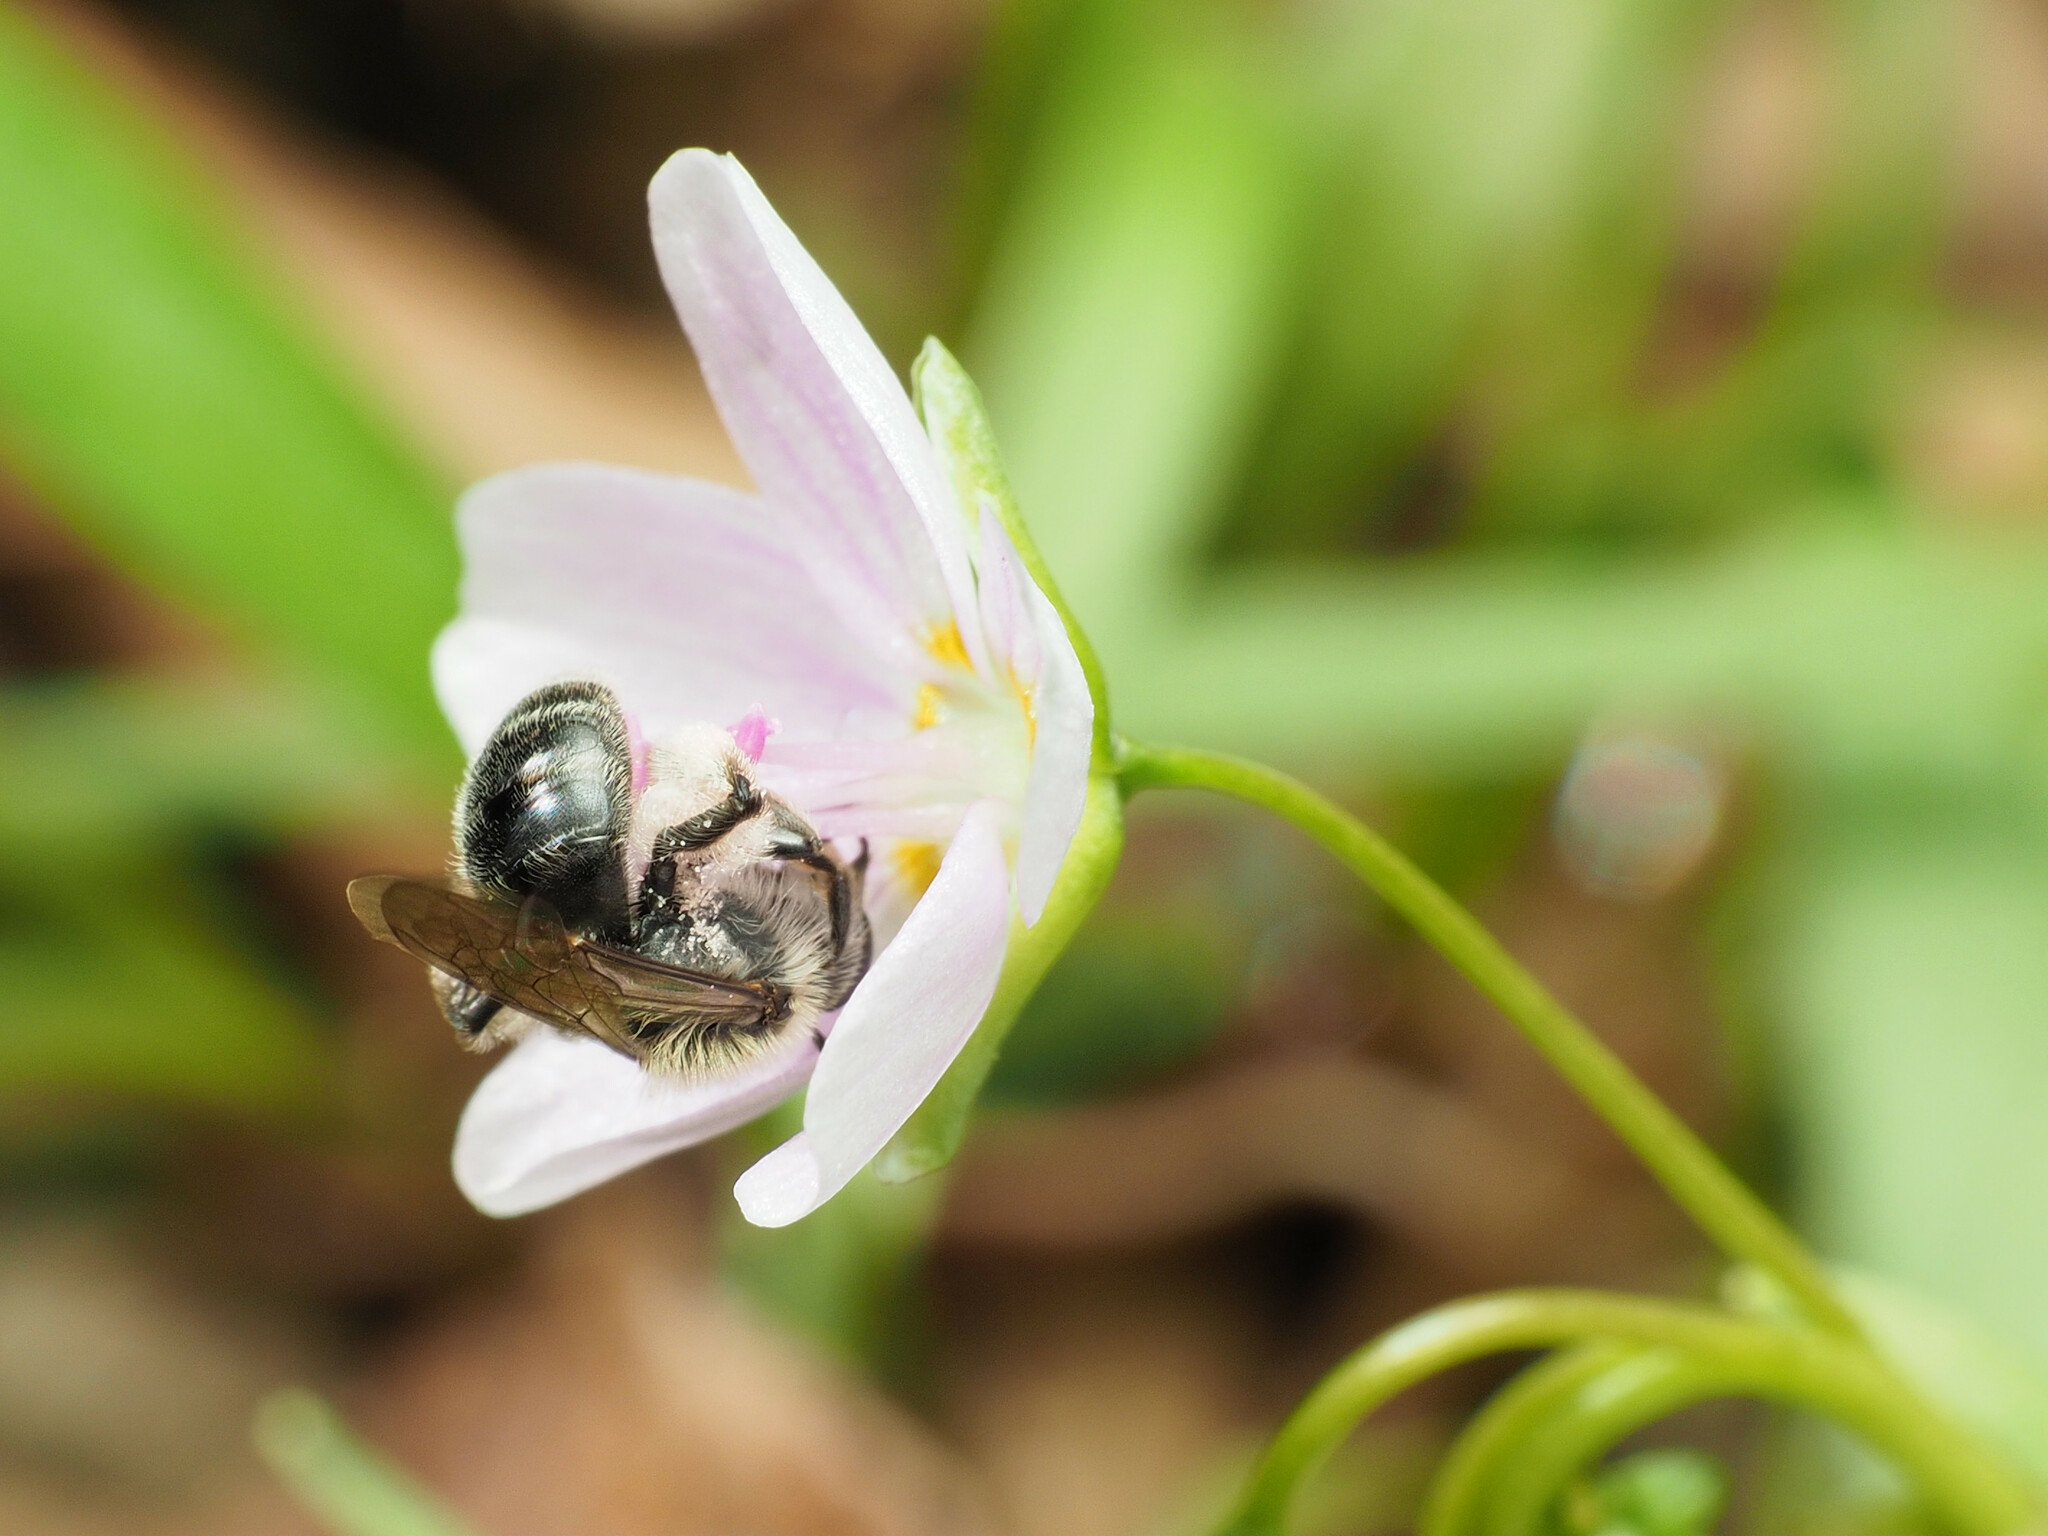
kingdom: Animalia
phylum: Arthropoda
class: Insecta
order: Hymenoptera
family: Andrenidae
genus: Andrena
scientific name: Andrena erigeniae
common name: Spring beauty miner
